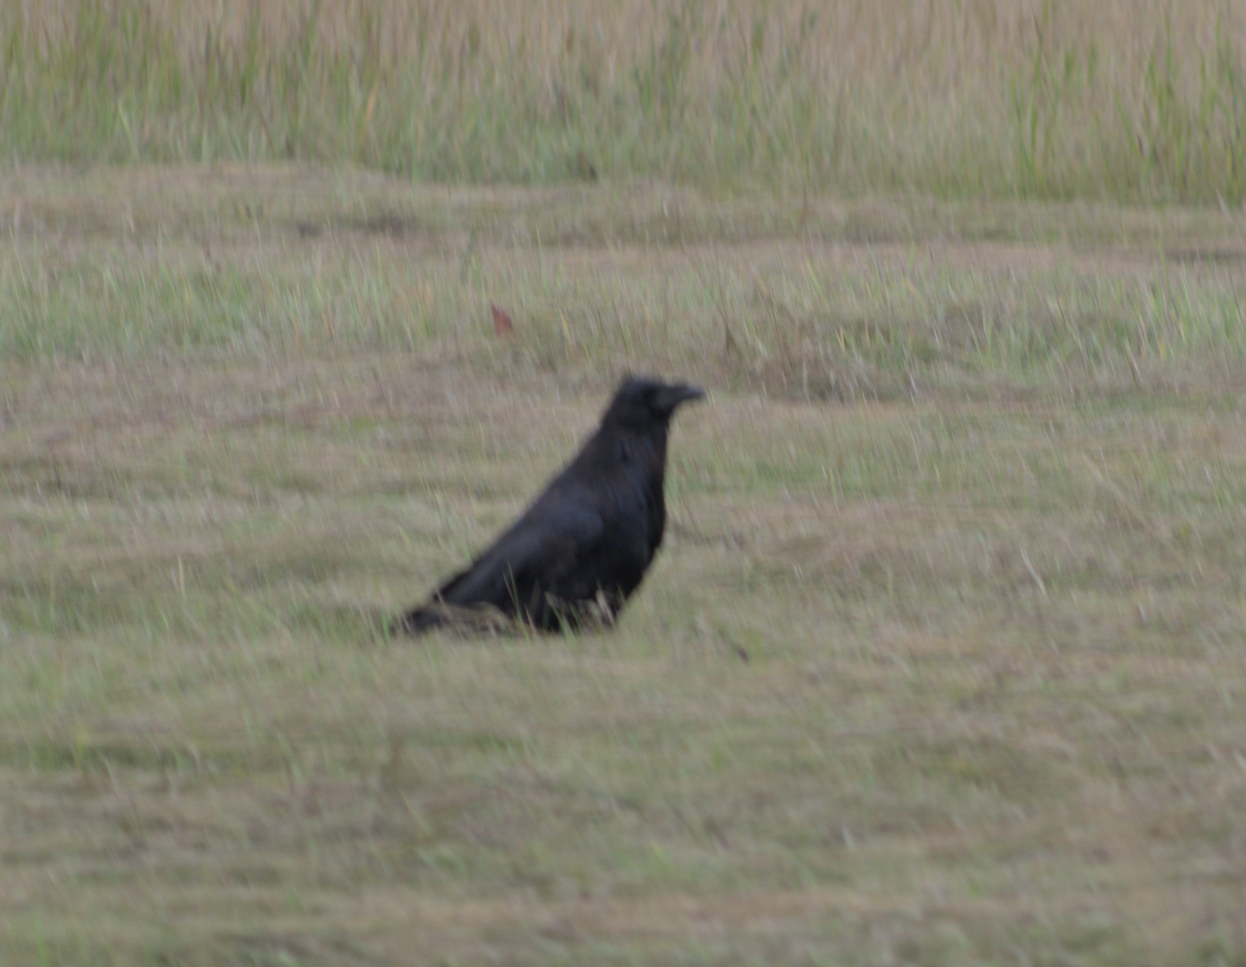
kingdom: Animalia
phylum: Chordata
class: Aves
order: Passeriformes
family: Corvidae
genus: Corvus
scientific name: Corvus corax
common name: Common raven
